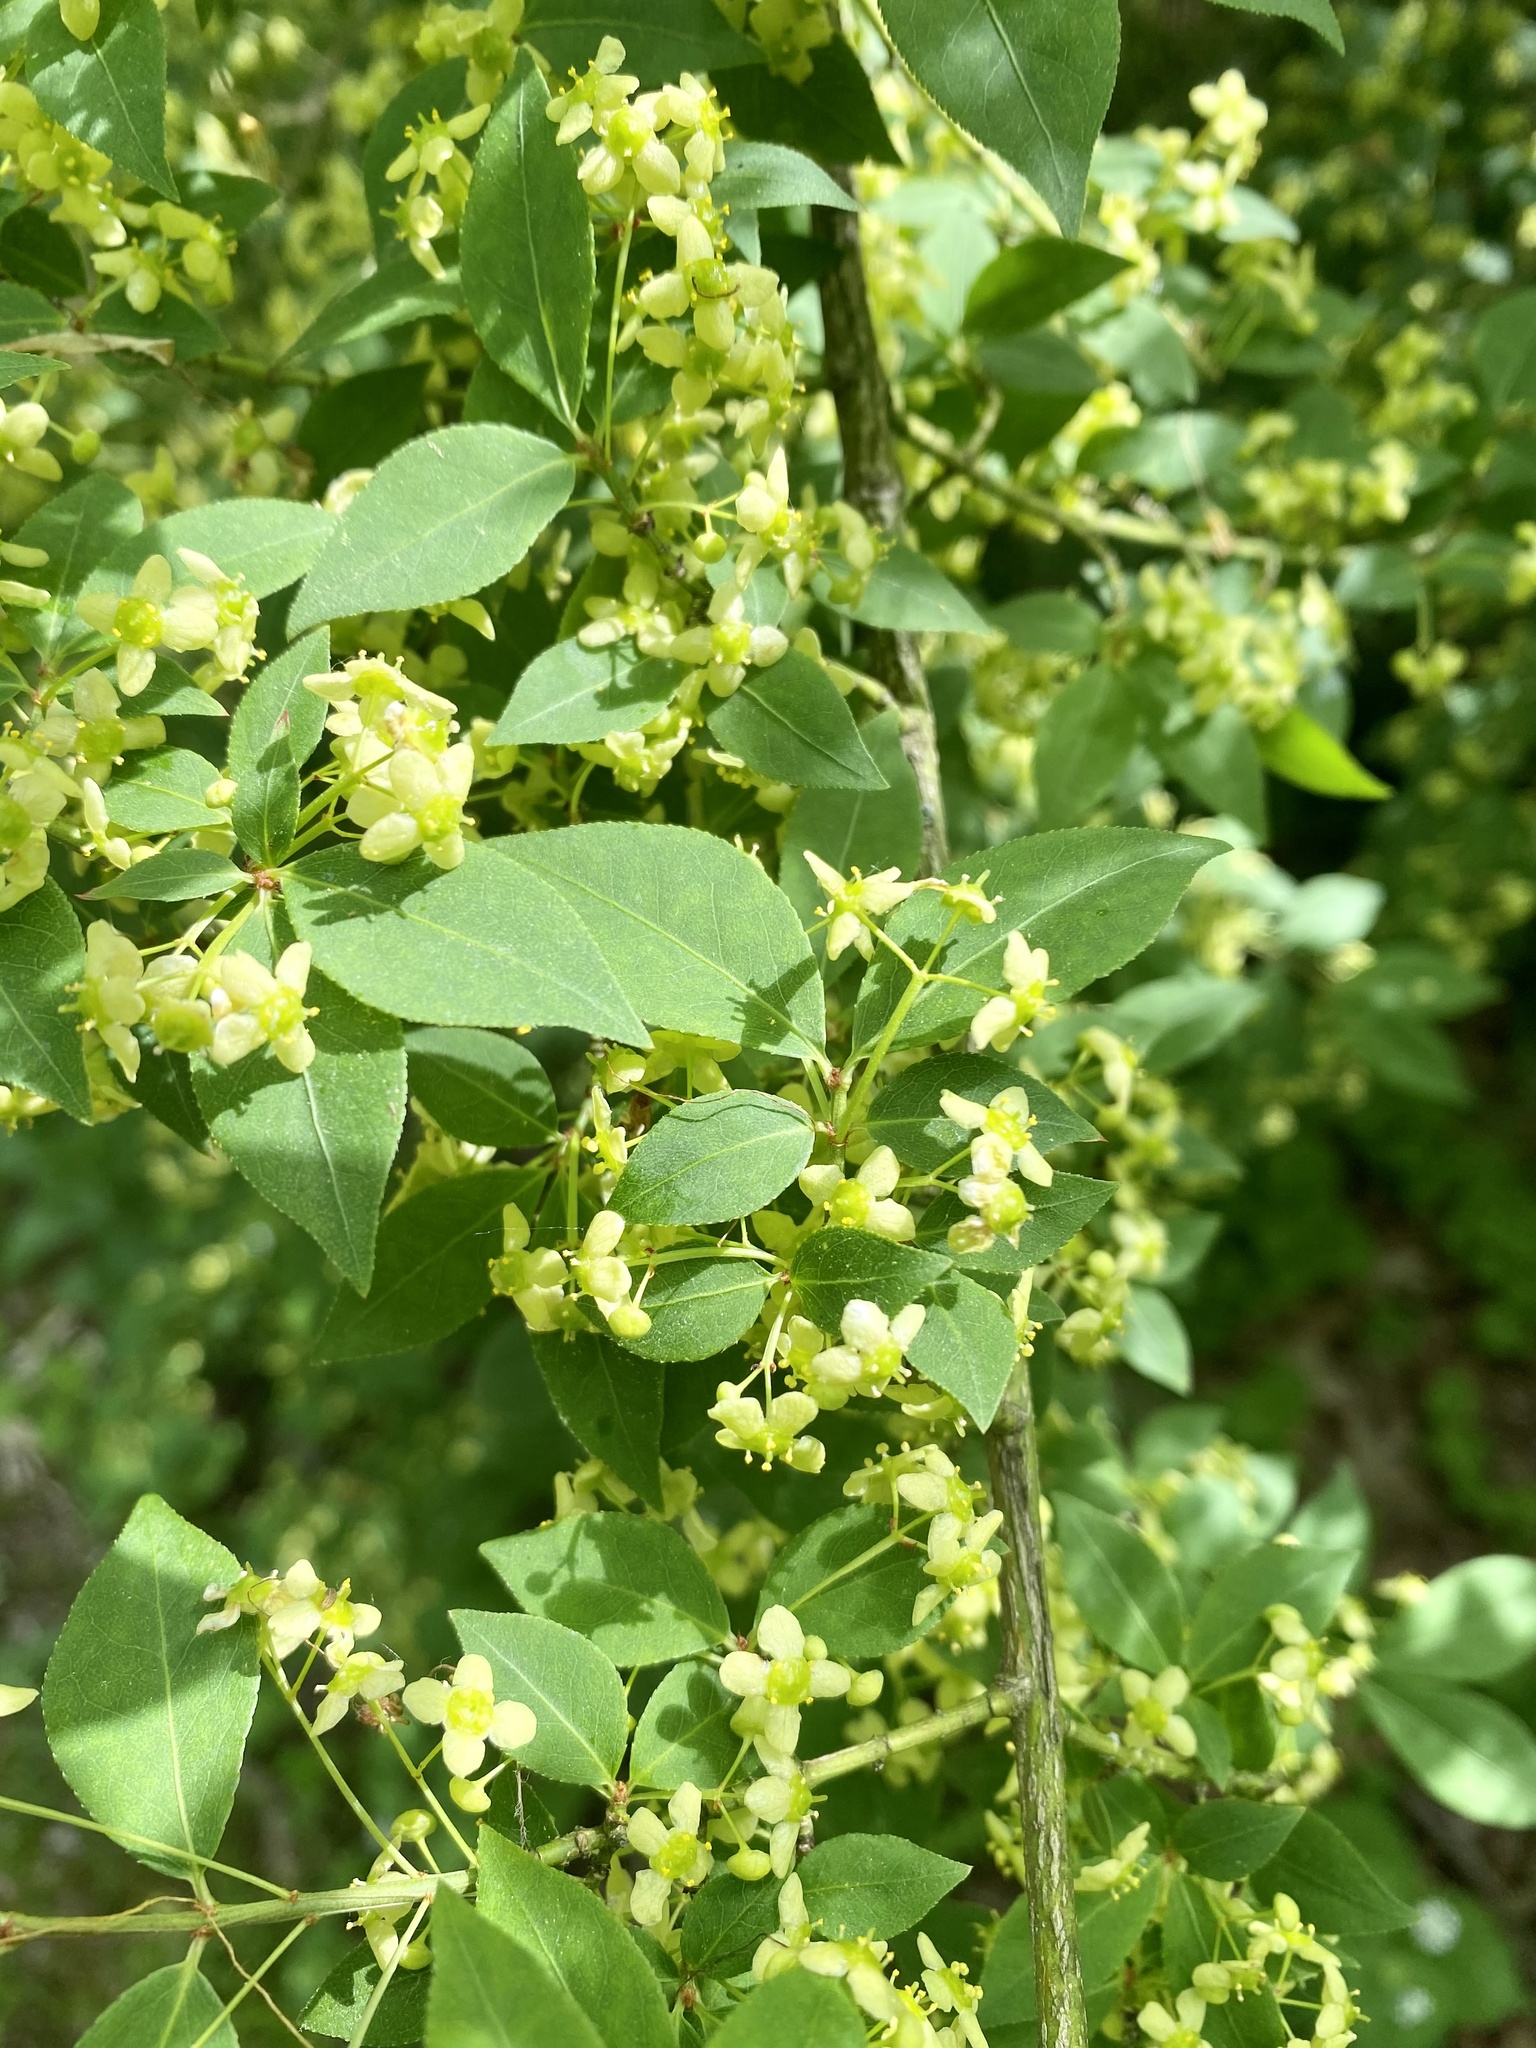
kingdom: Plantae
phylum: Tracheophyta
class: Magnoliopsida
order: Celastrales
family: Celastraceae
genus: Euonymus
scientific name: Euonymus alatus
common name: Winged euonymus
